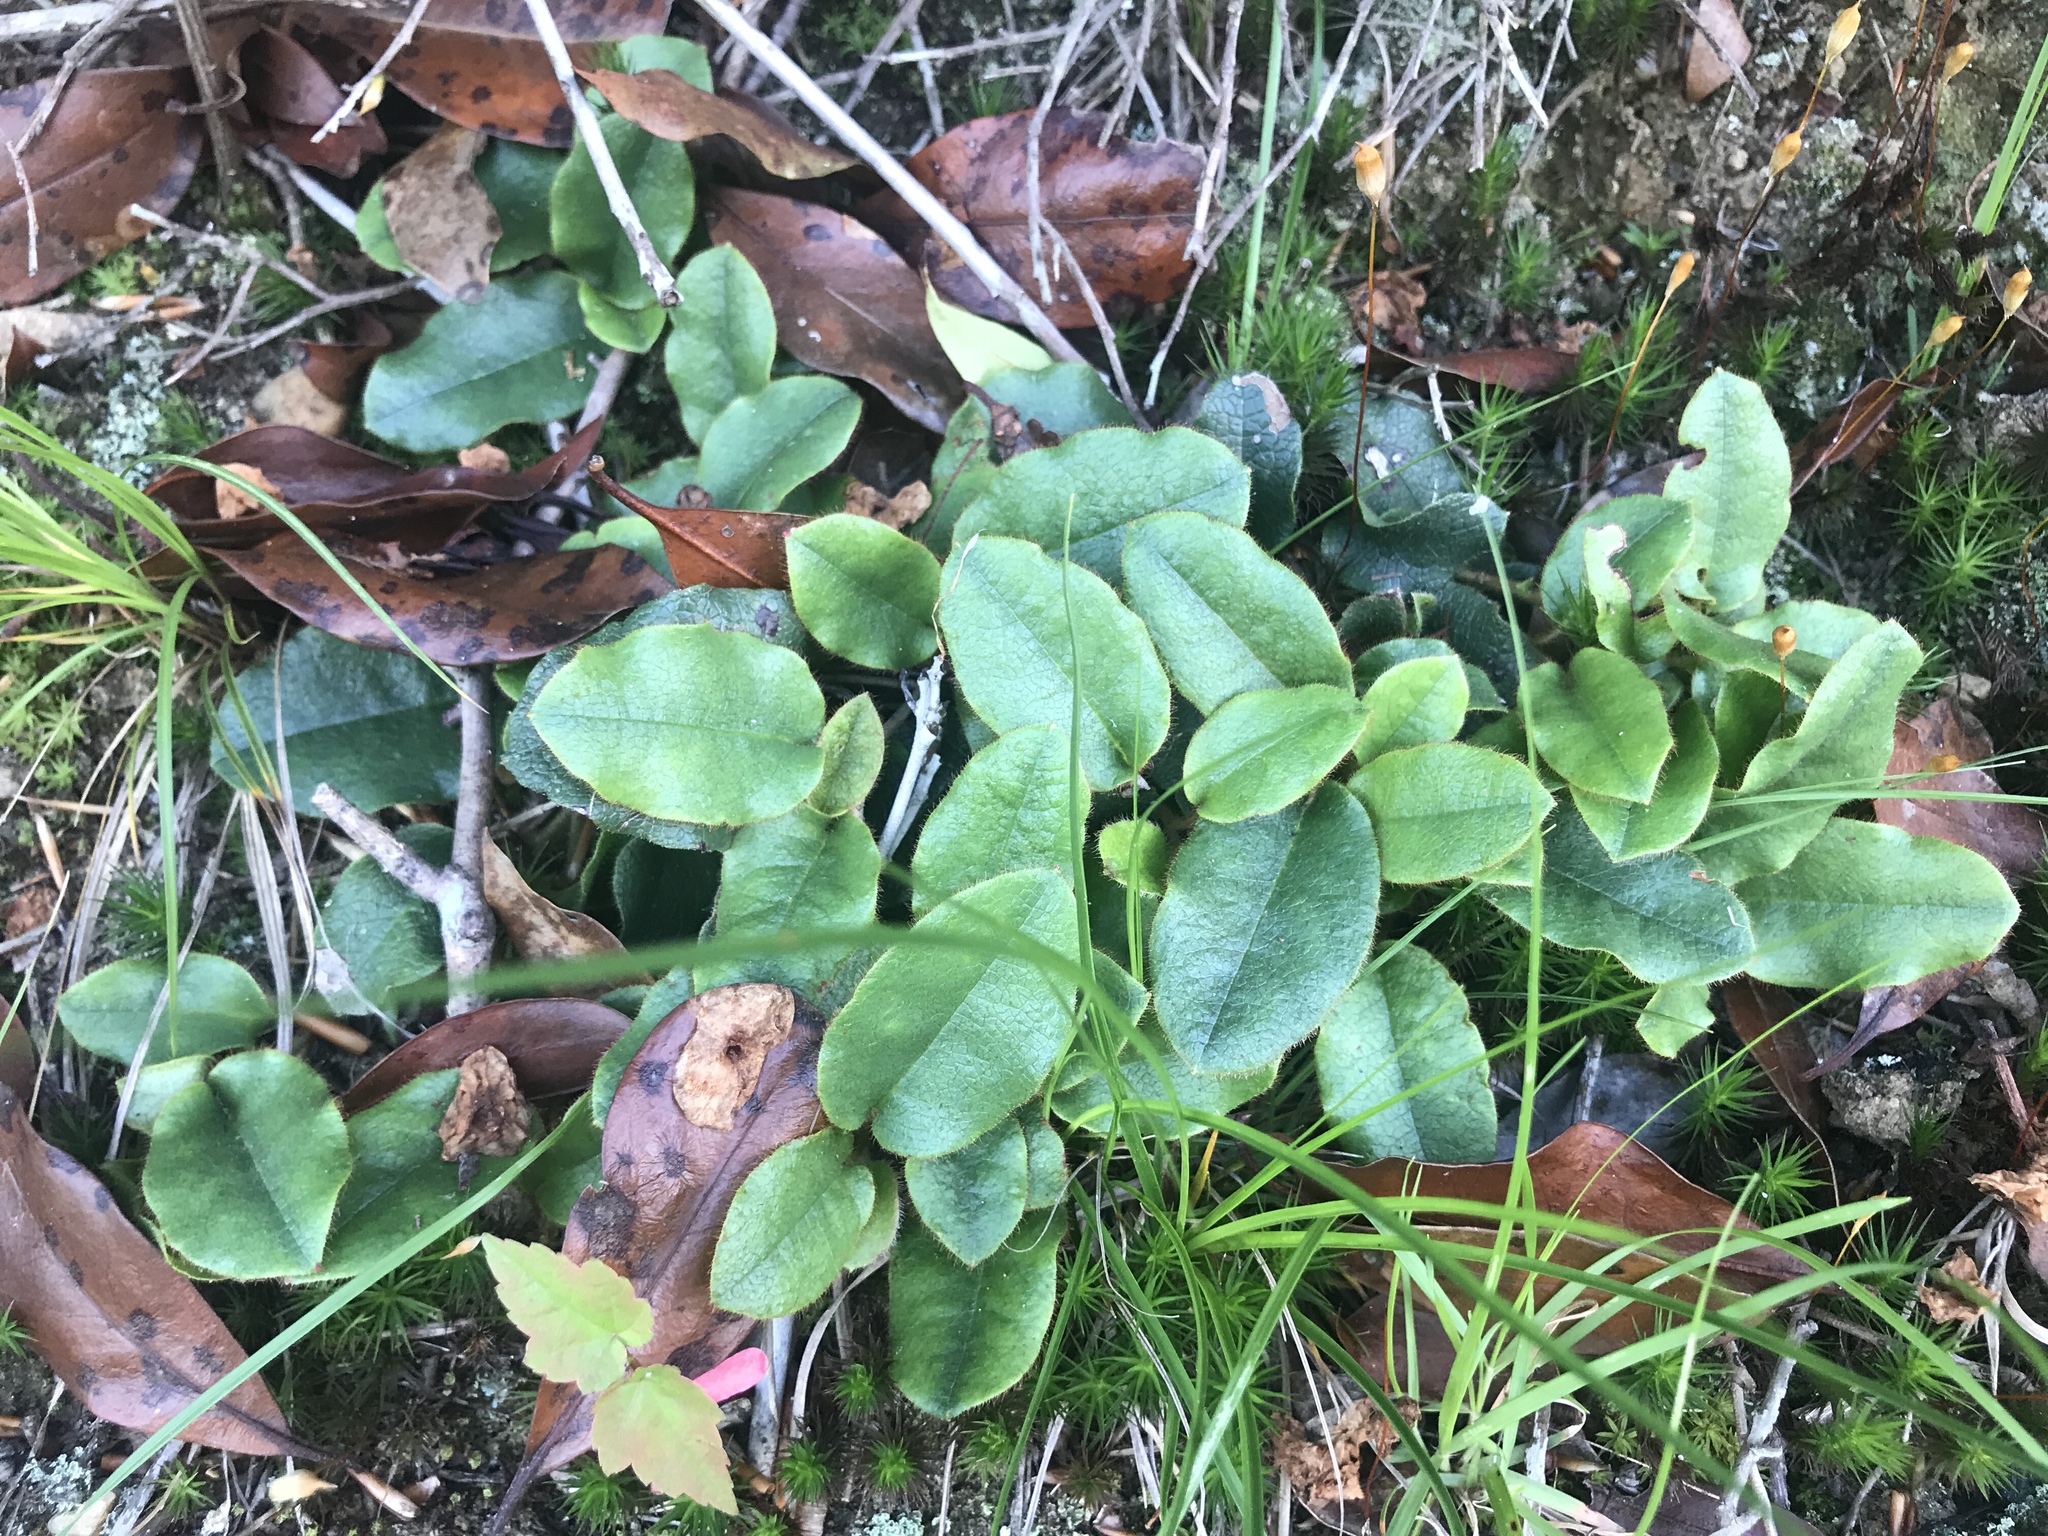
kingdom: Plantae
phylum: Tracheophyta
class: Magnoliopsida
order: Ericales
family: Ericaceae
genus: Epigaea
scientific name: Epigaea repens
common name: Gravelroot
